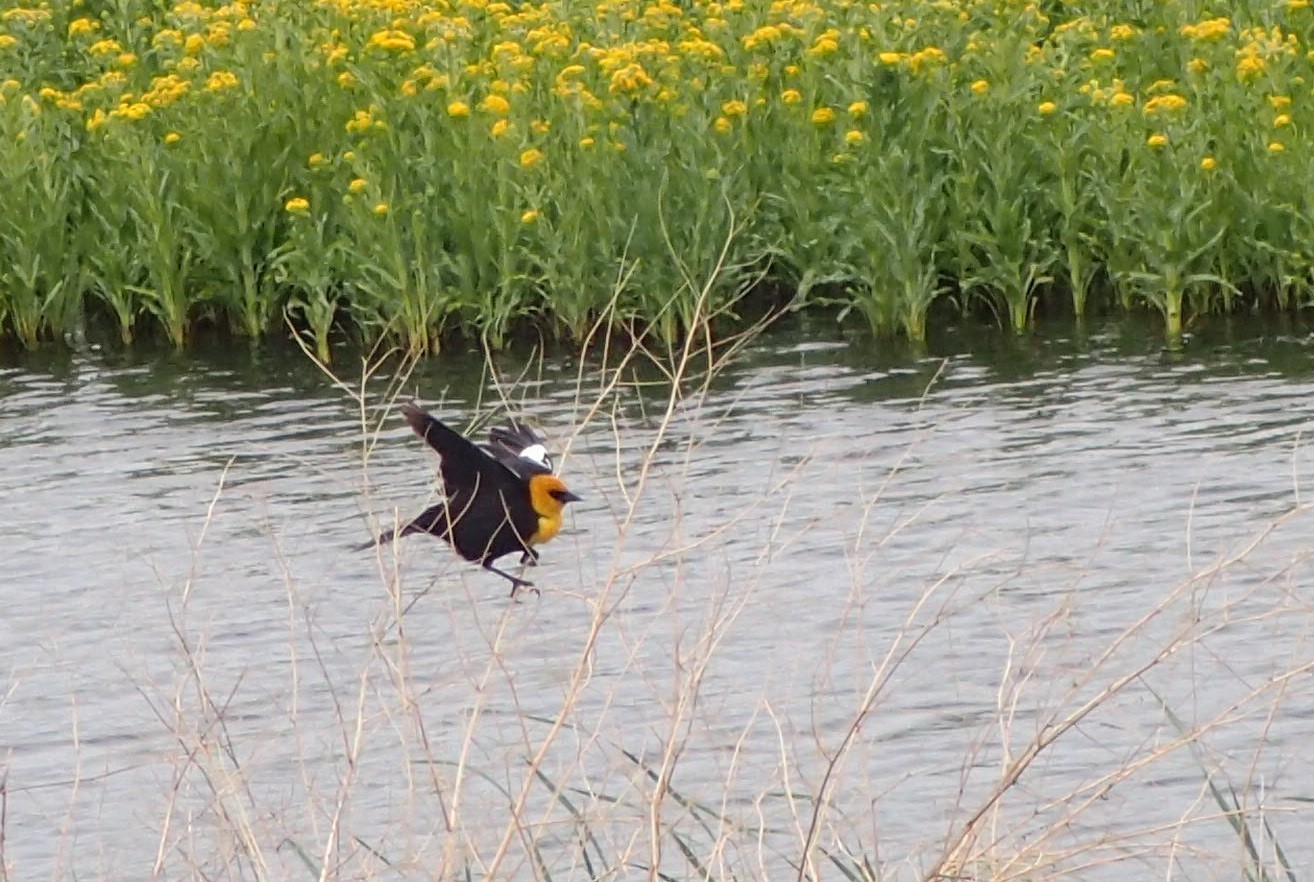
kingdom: Animalia
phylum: Chordata
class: Aves
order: Passeriformes
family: Icteridae
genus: Xanthocephalus
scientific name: Xanthocephalus xanthocephalus
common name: Yellow-headed blackbird
